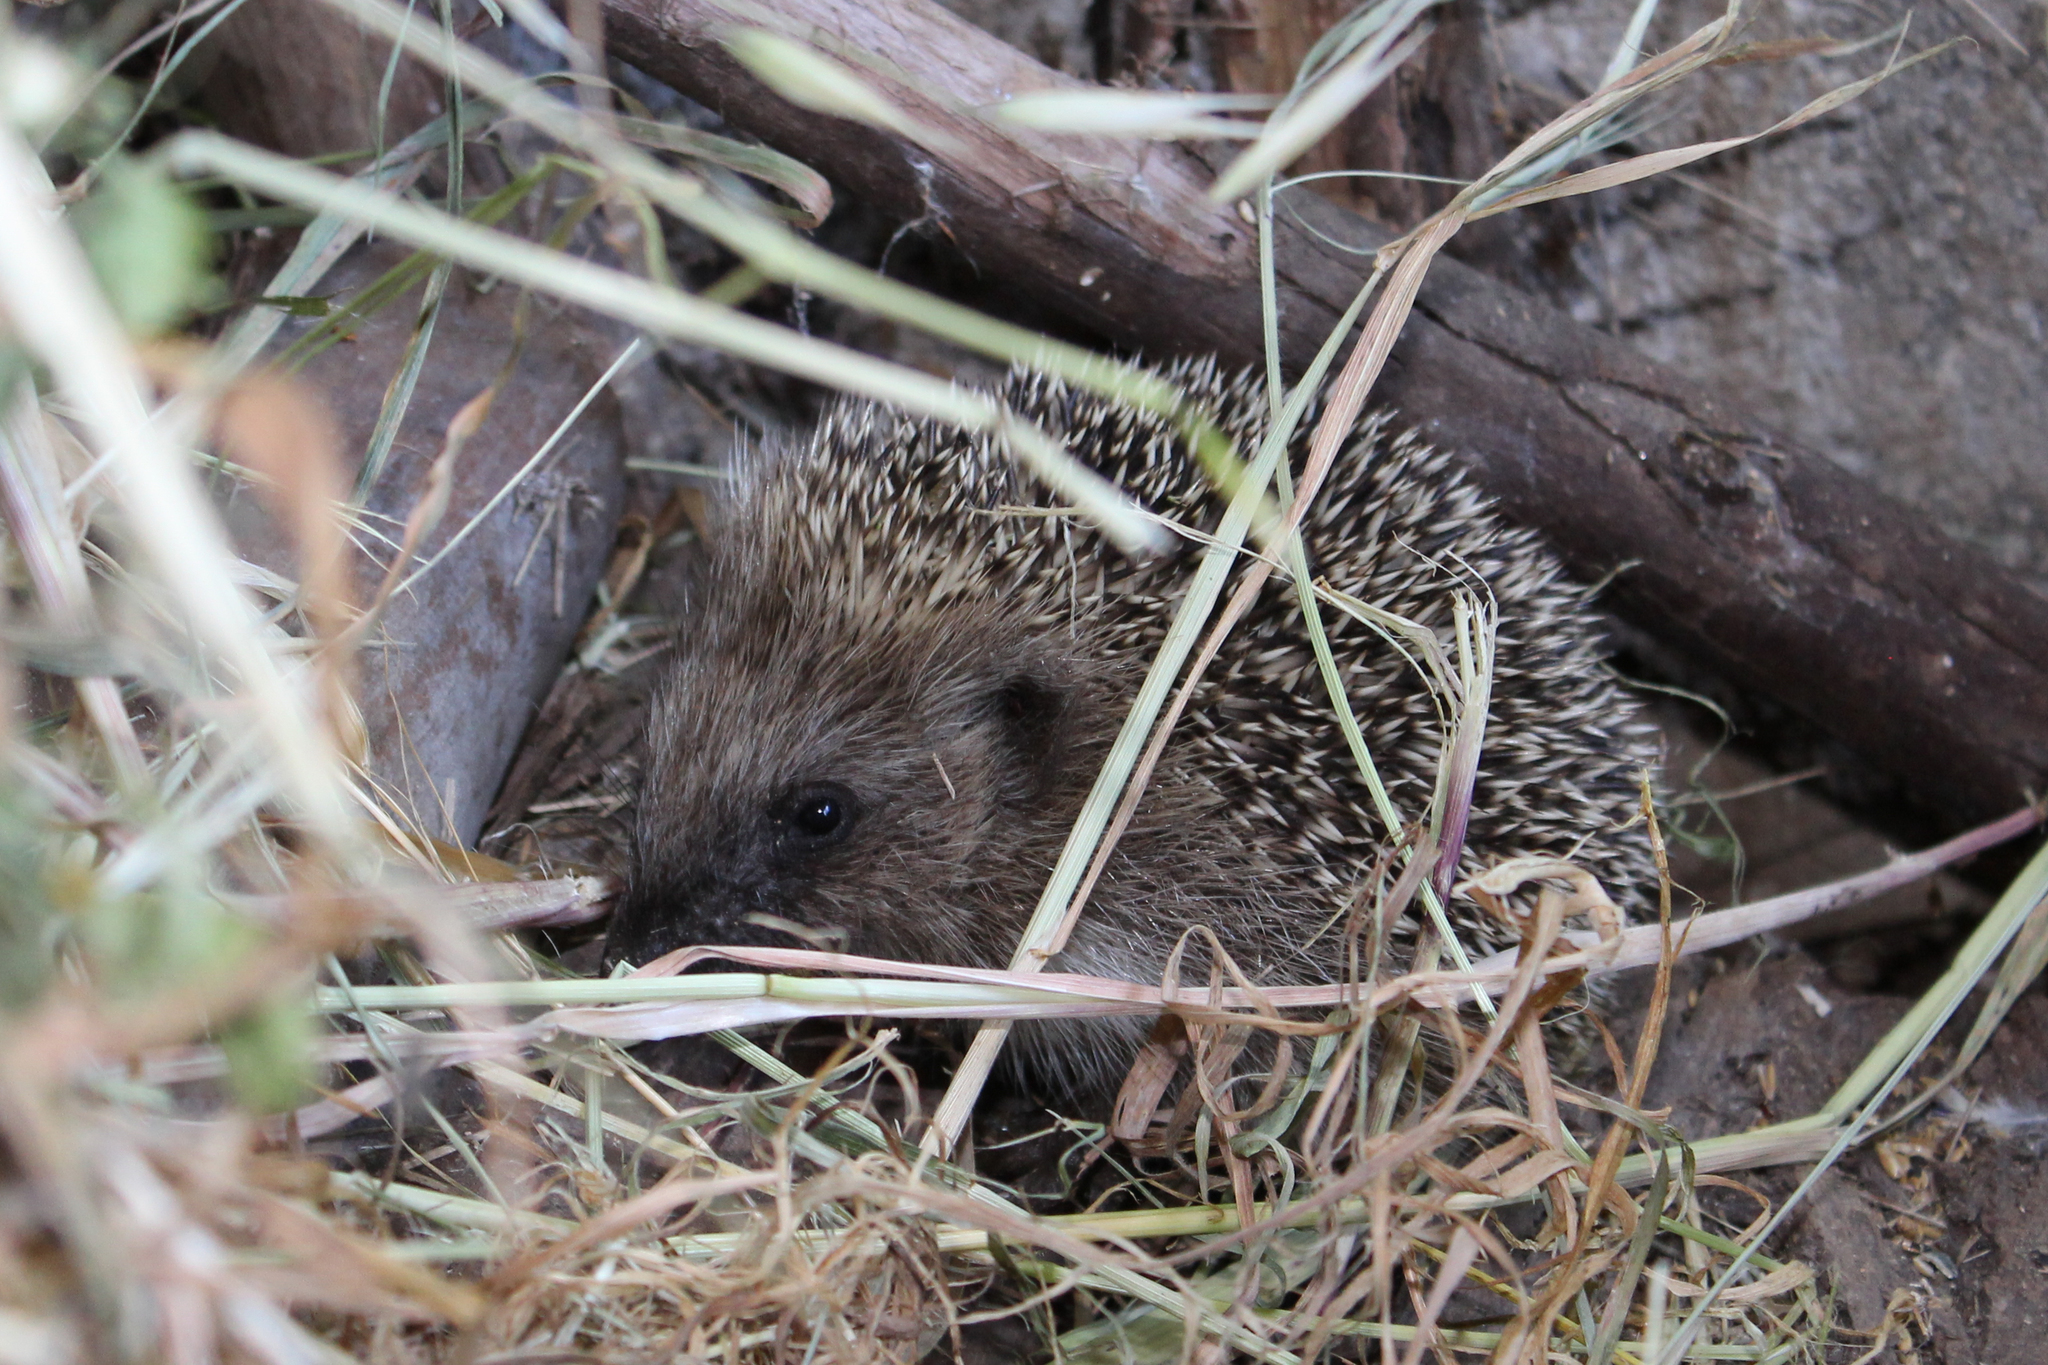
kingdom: Animalia
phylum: Chordata
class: Mammalia
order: Erinaceomorpha
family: Erinaceidae
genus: Erinaceus
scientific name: Erinaceus europaeus
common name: West european hedgehog
